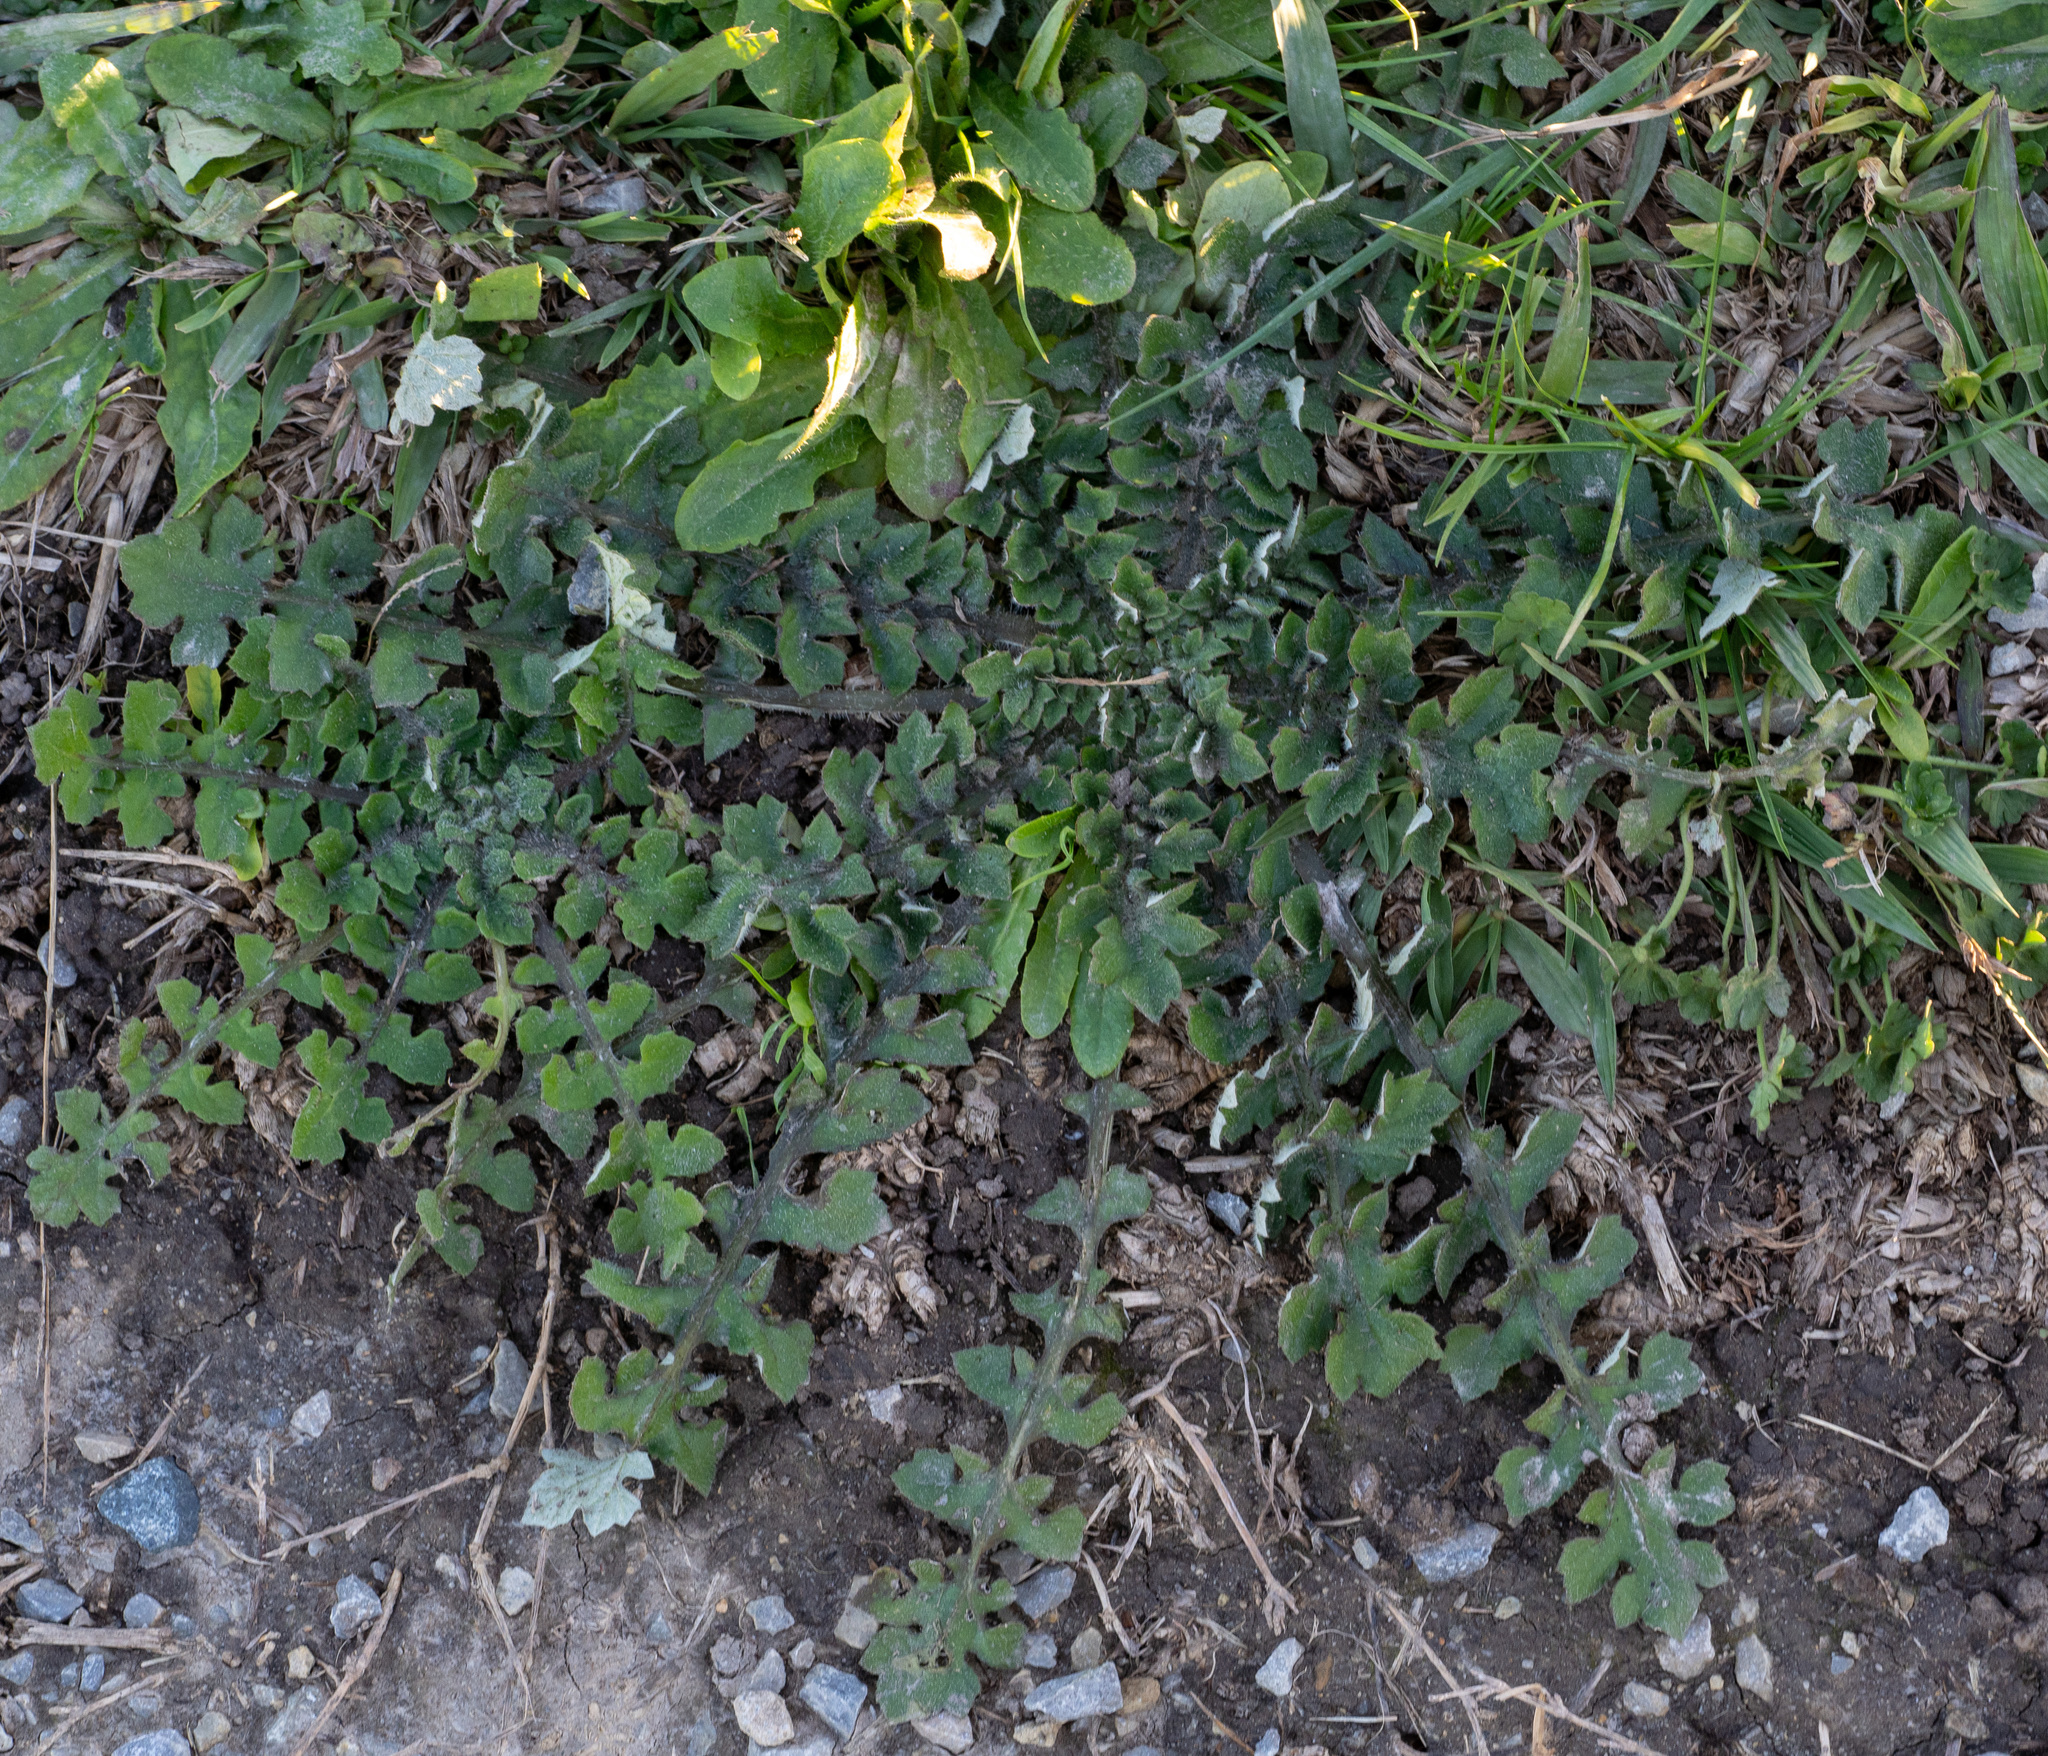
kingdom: Plantae
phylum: Tracheophyta
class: Magnoliopsida
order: Asterales
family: Asteraceae
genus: Arctotheca
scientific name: Arctotheca calendula
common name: Capeweed
